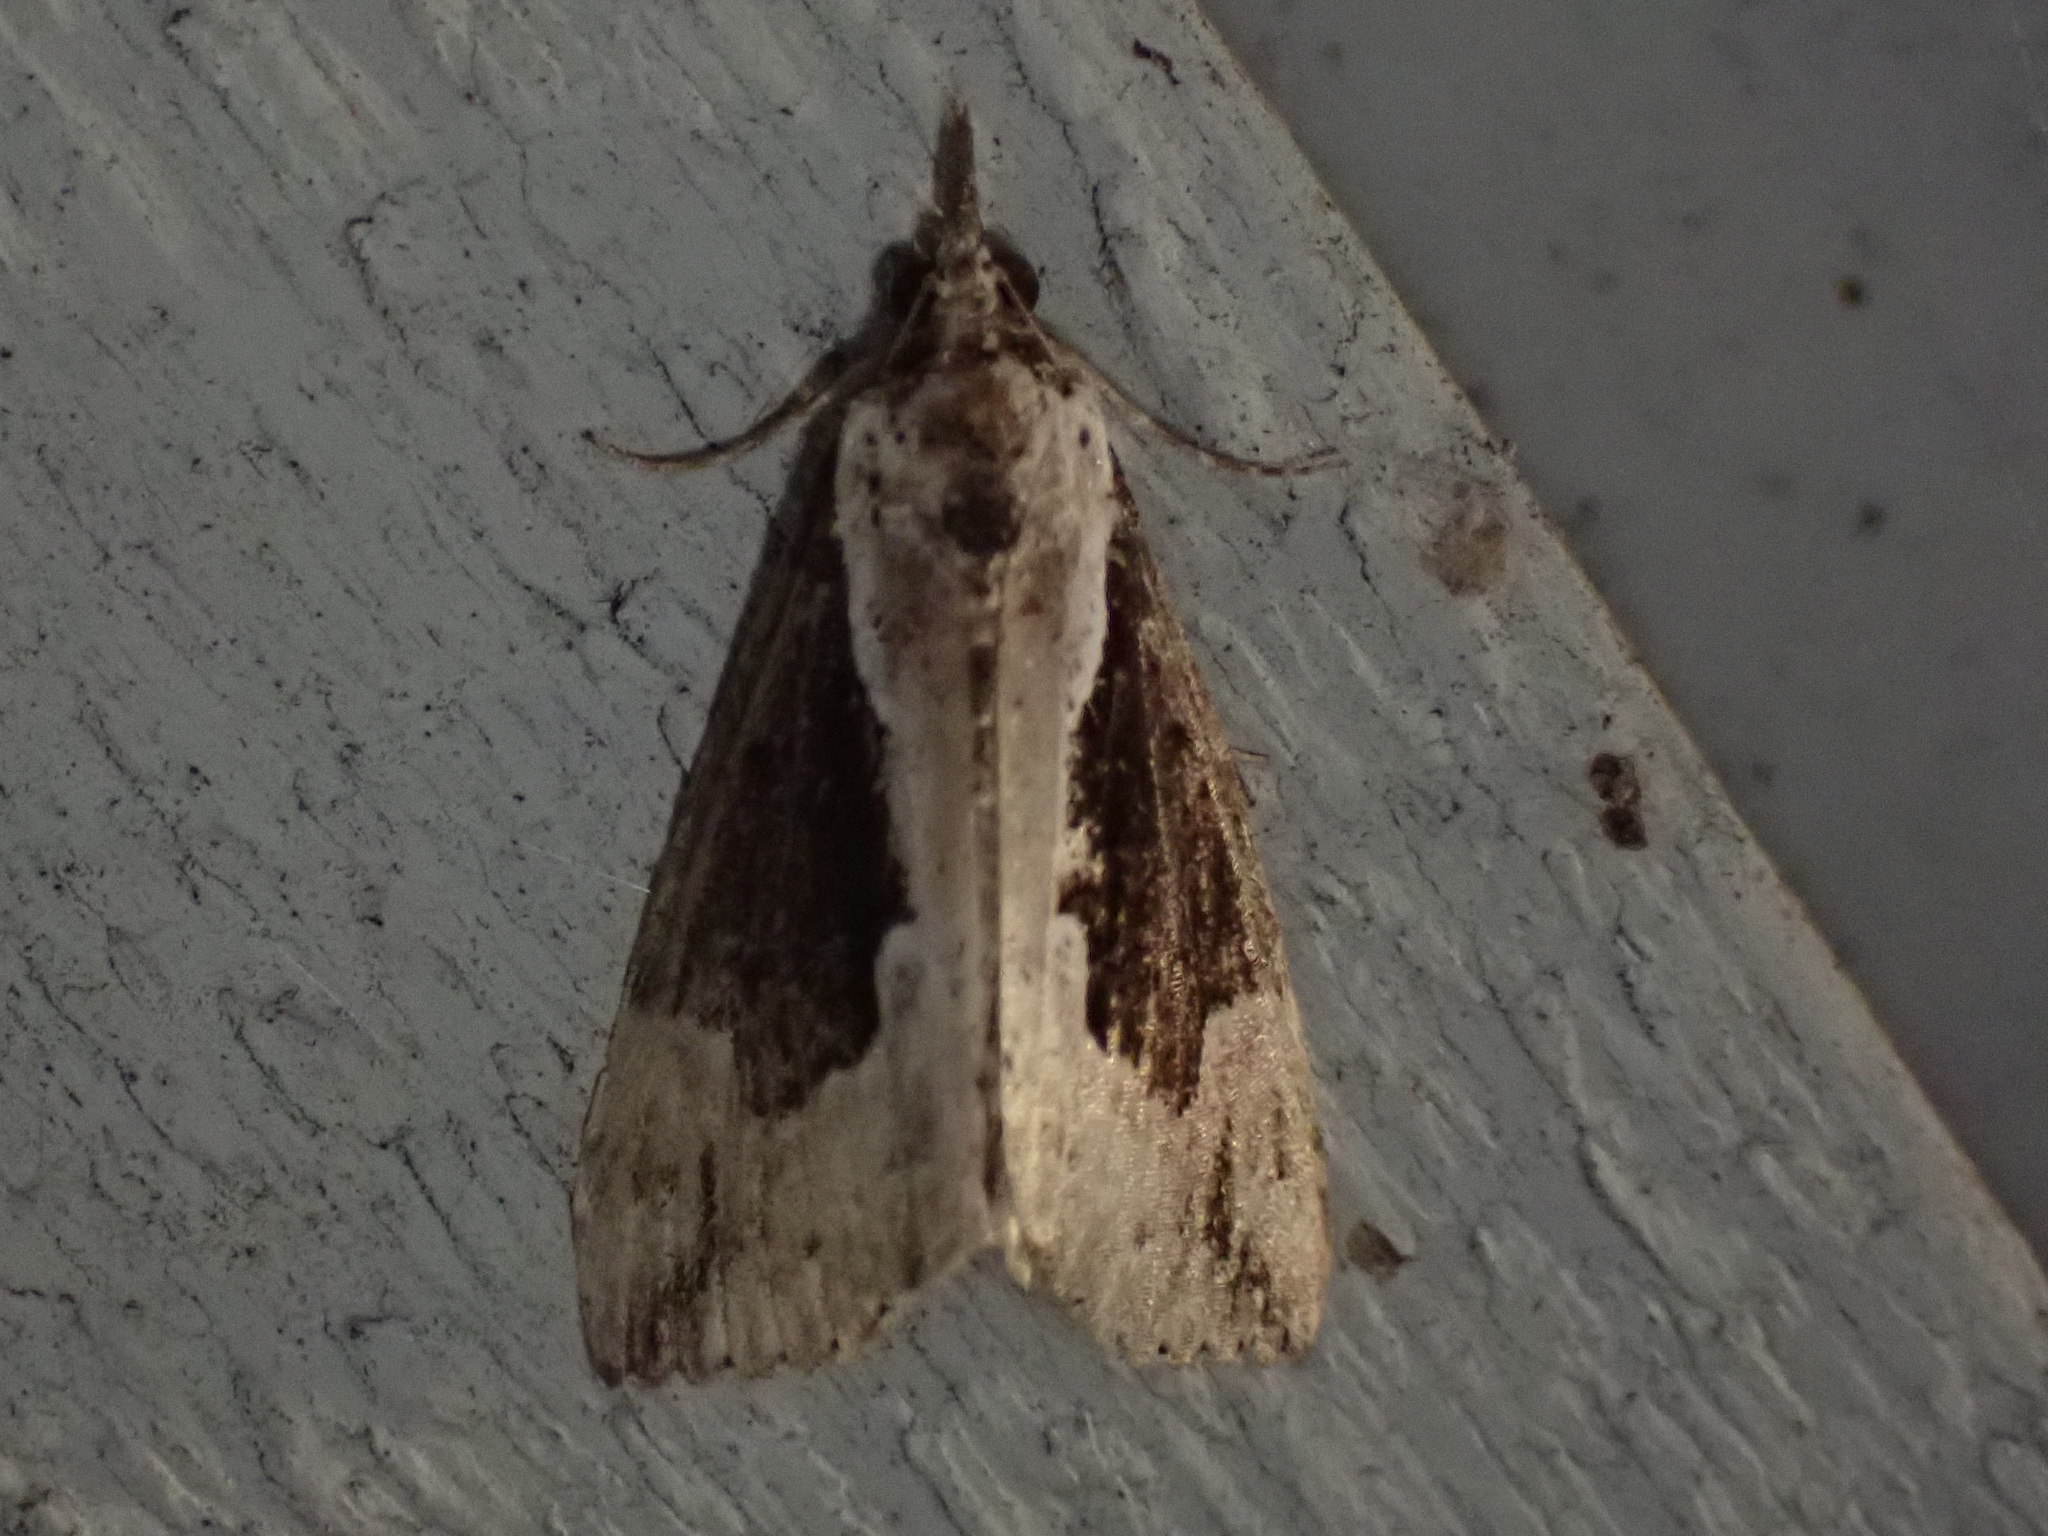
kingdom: Animalia
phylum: Arthropoda
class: Insecta
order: Lepidoptera
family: Erebidae
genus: Hypena
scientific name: Hypena baltimoralis
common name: Baltimore snout
